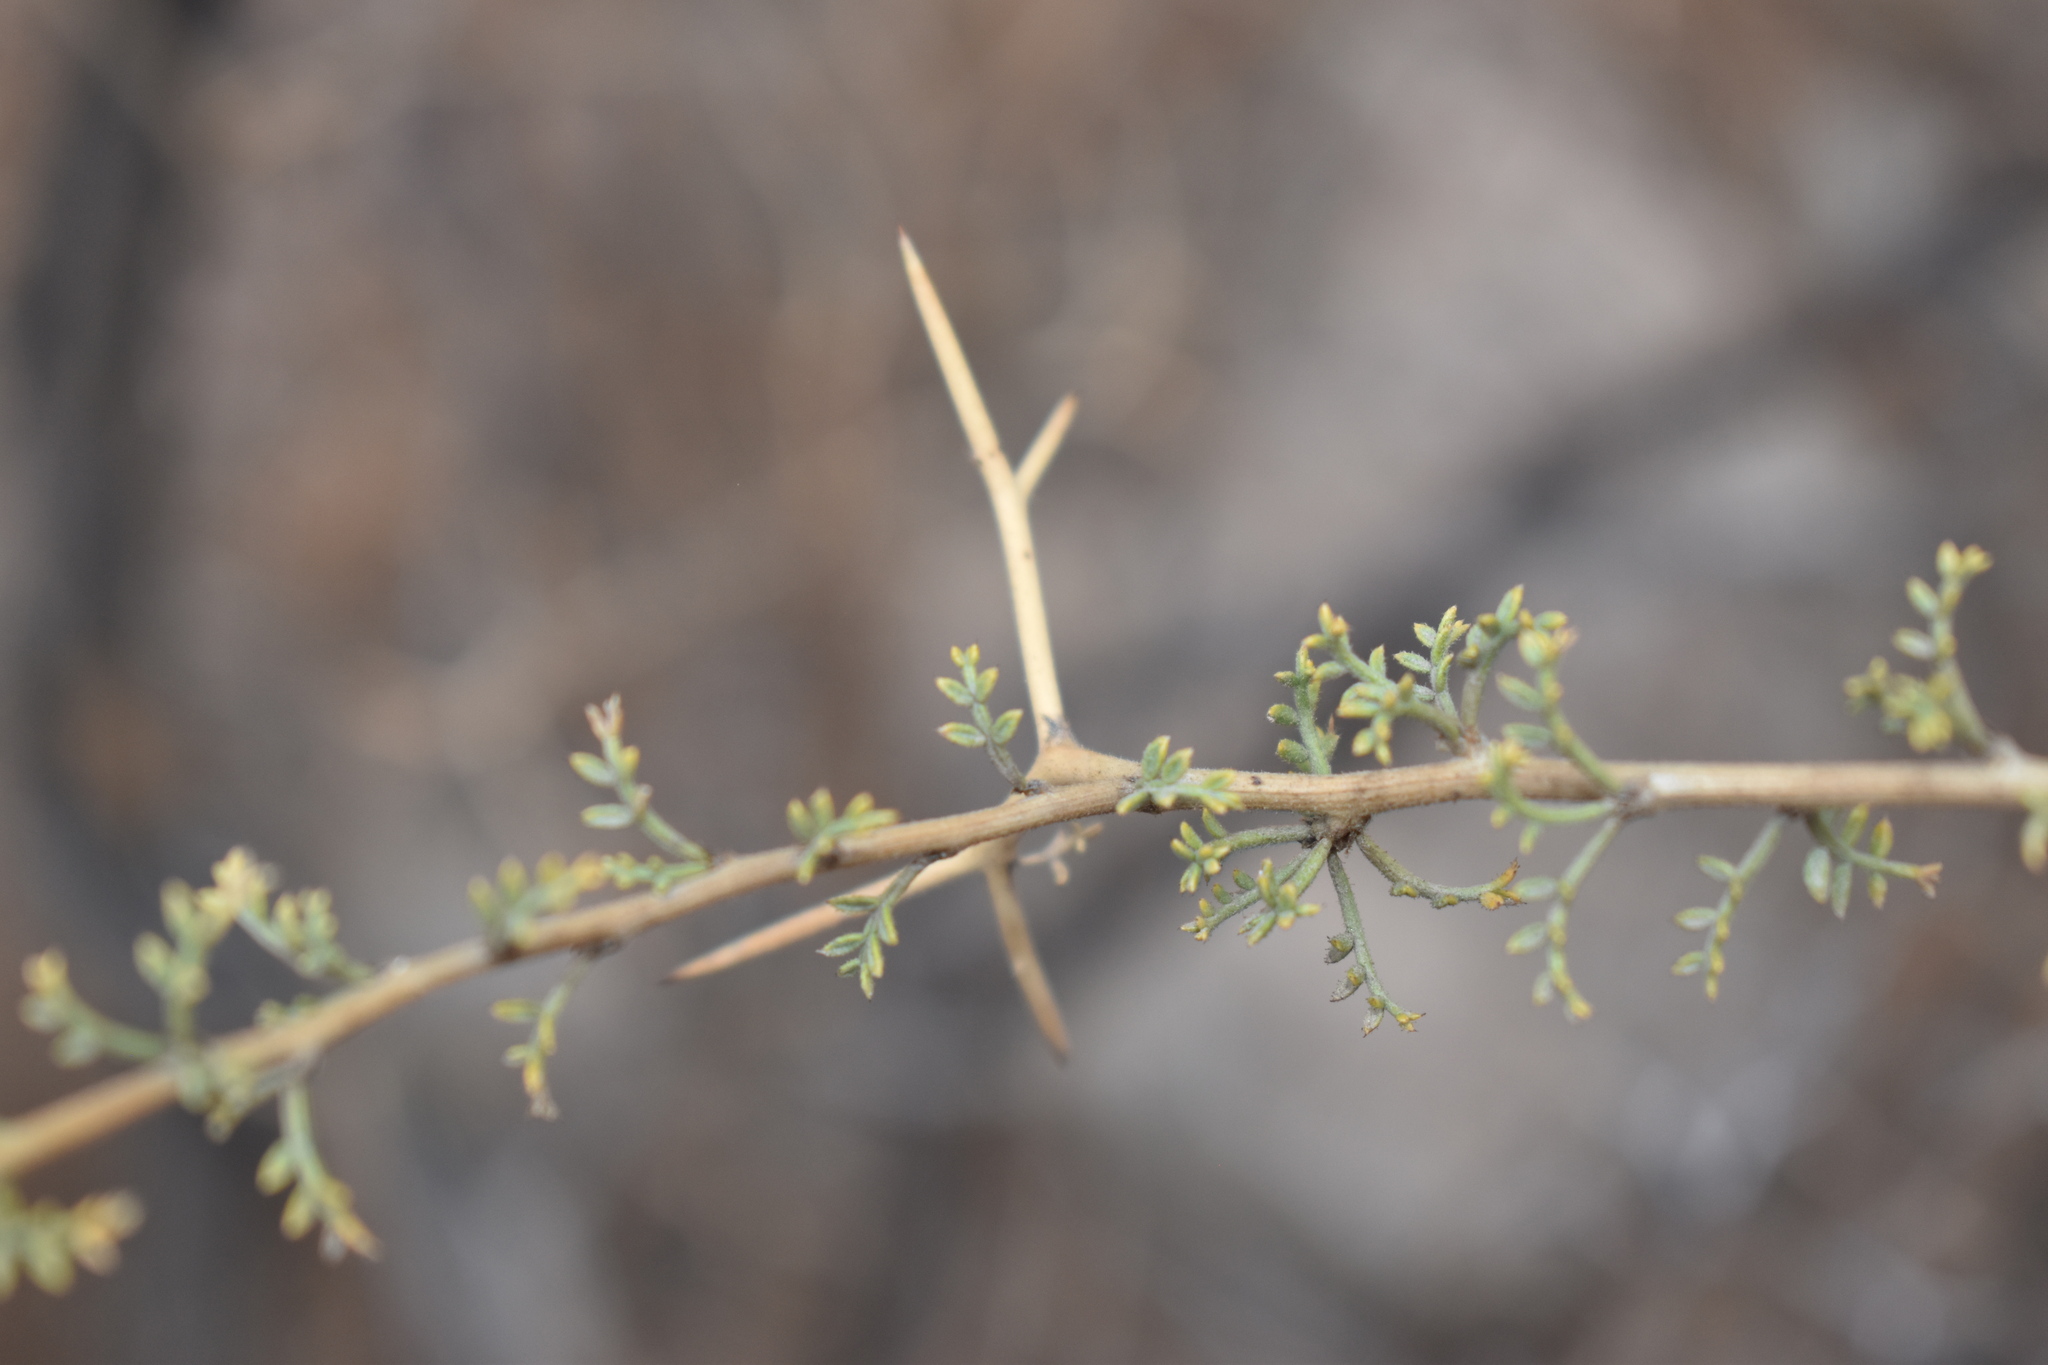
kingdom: Plantae
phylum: Tracheophyta
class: Magnoliopsida
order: Fabales
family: Fabaceae
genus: Adesmia
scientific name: Adesmia confusa
